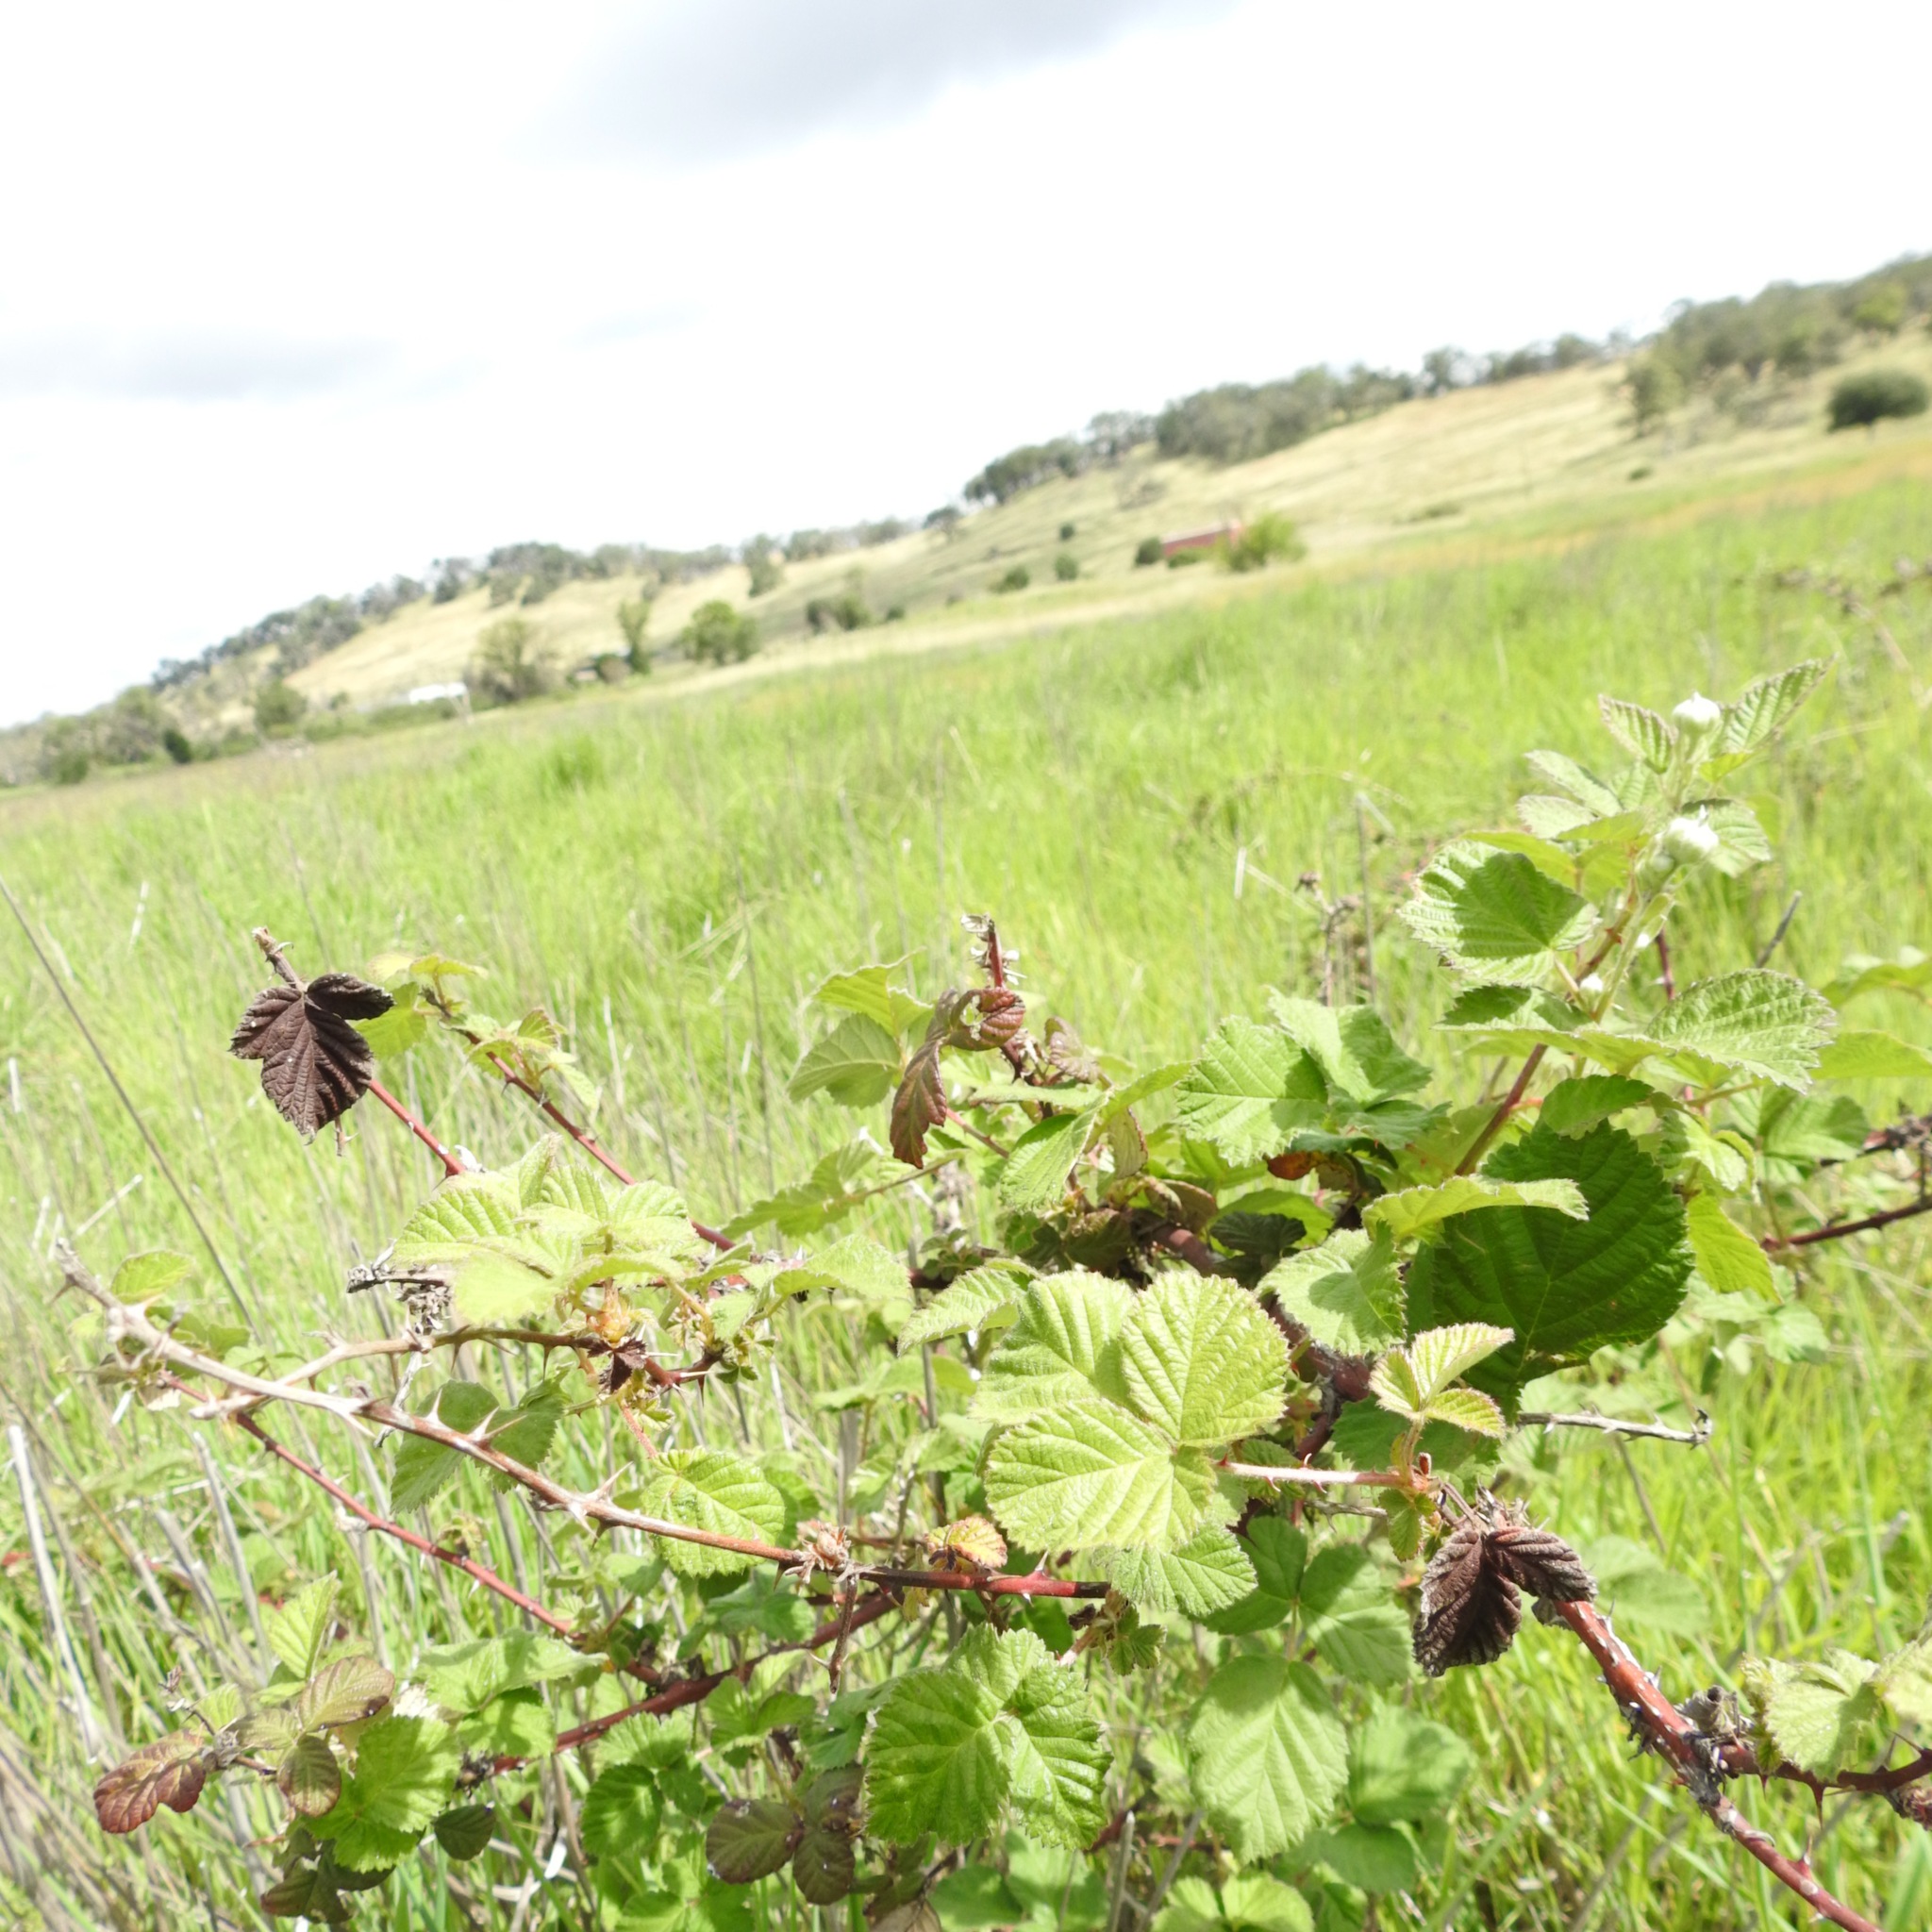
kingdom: Plantae
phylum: Tracheophyta
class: Magnoliopsida
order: Rosales
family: Rosaceae
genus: Rubus
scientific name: Rubus armeniacus
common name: Himalayan blackberry
